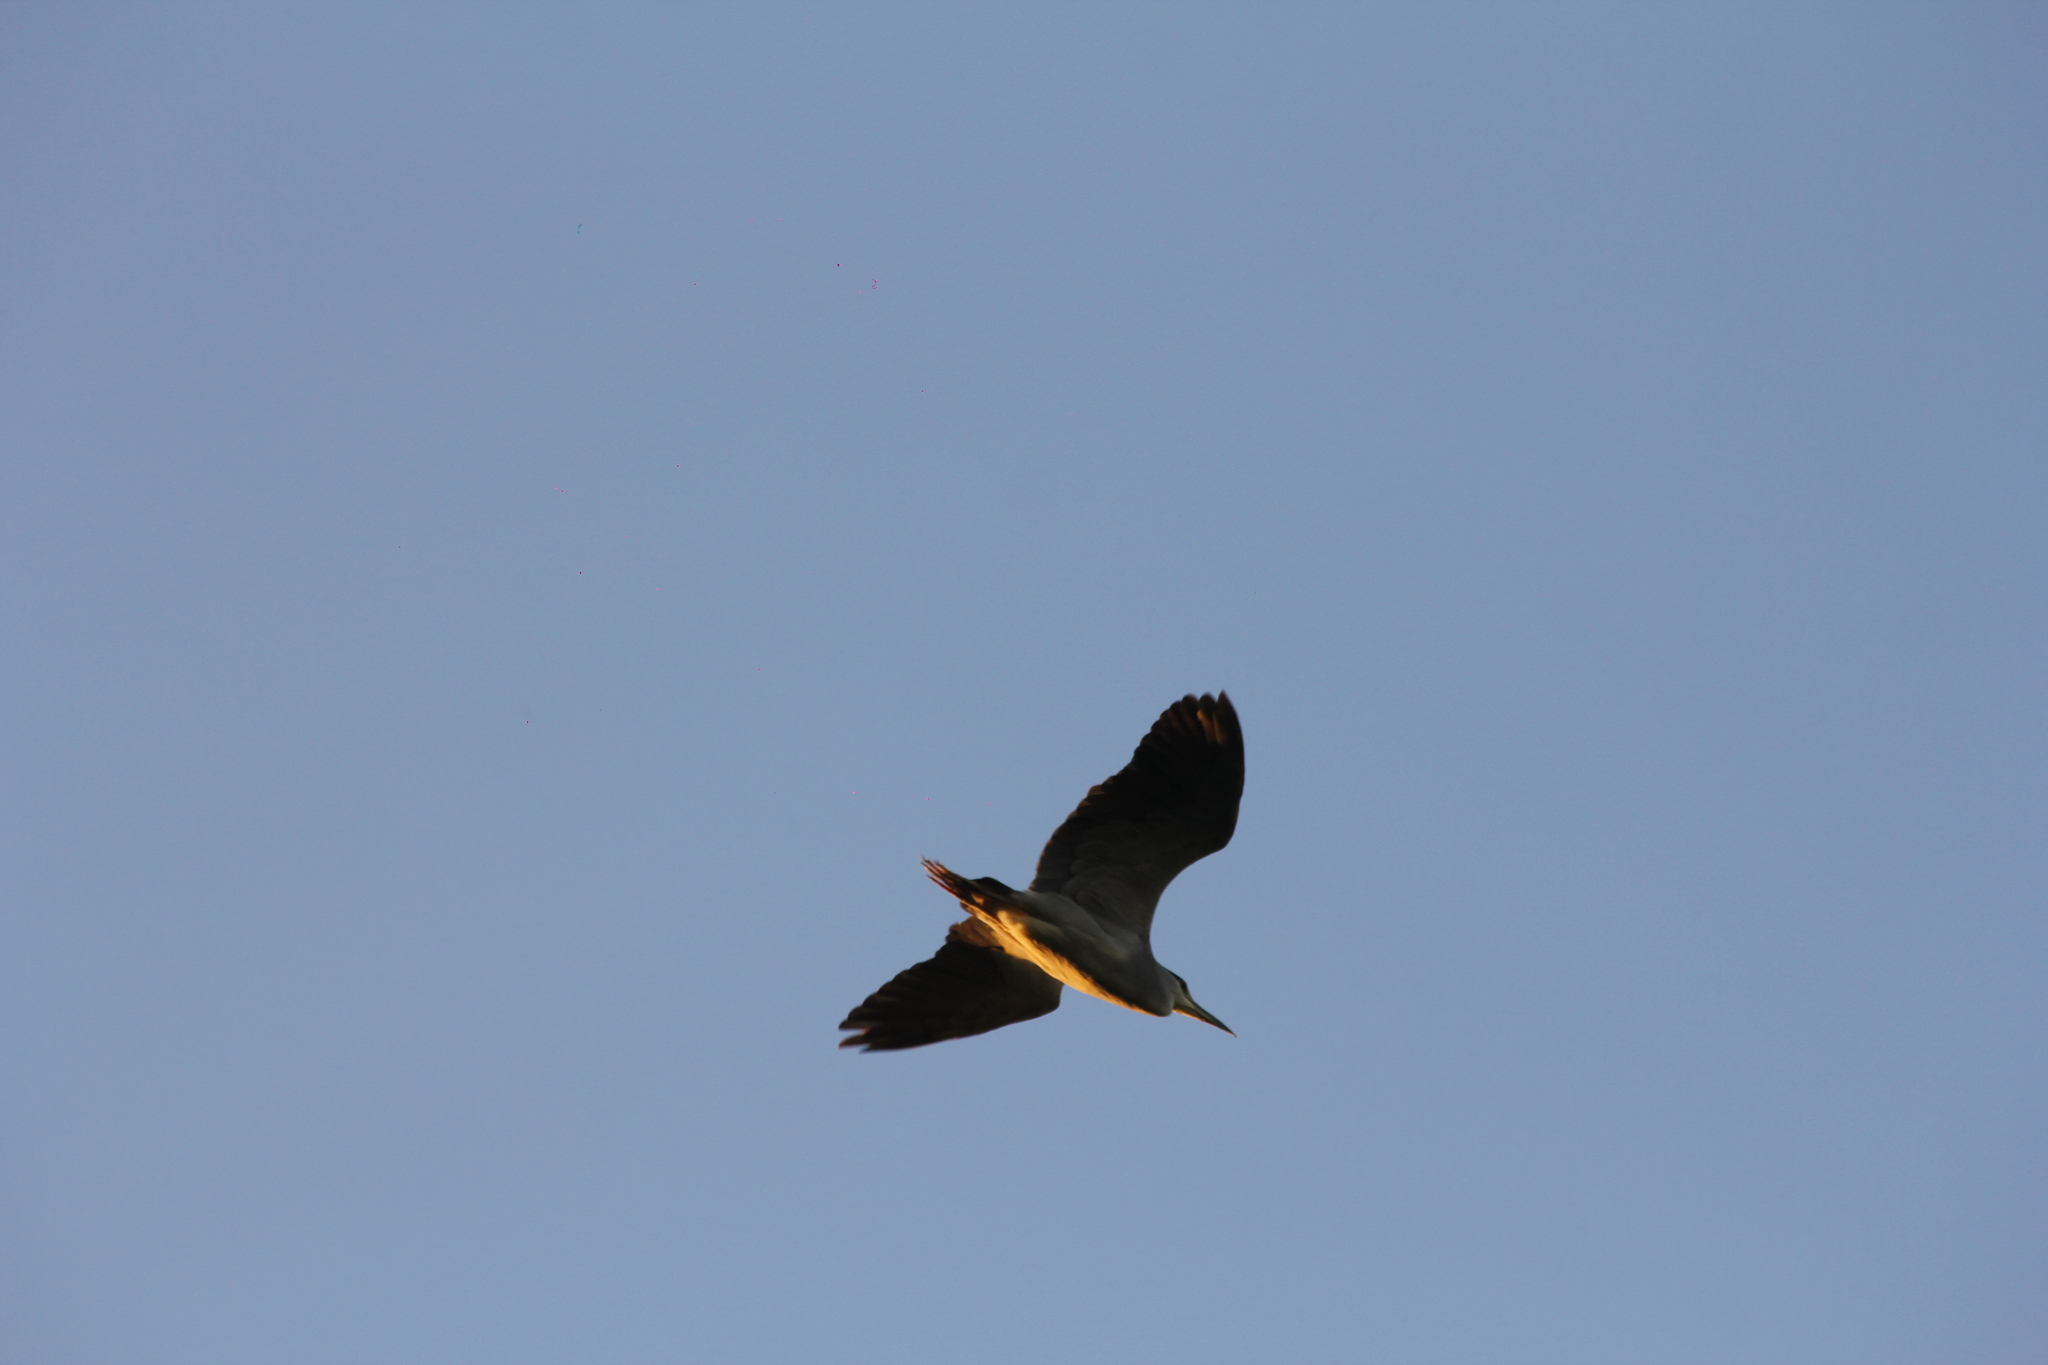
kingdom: Animalia
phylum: Chordata
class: Aves
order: Pelecaniformes
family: Ardeidae
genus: Nycticorax
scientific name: Nycticorax nycticorax
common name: Black-crowned night heron
